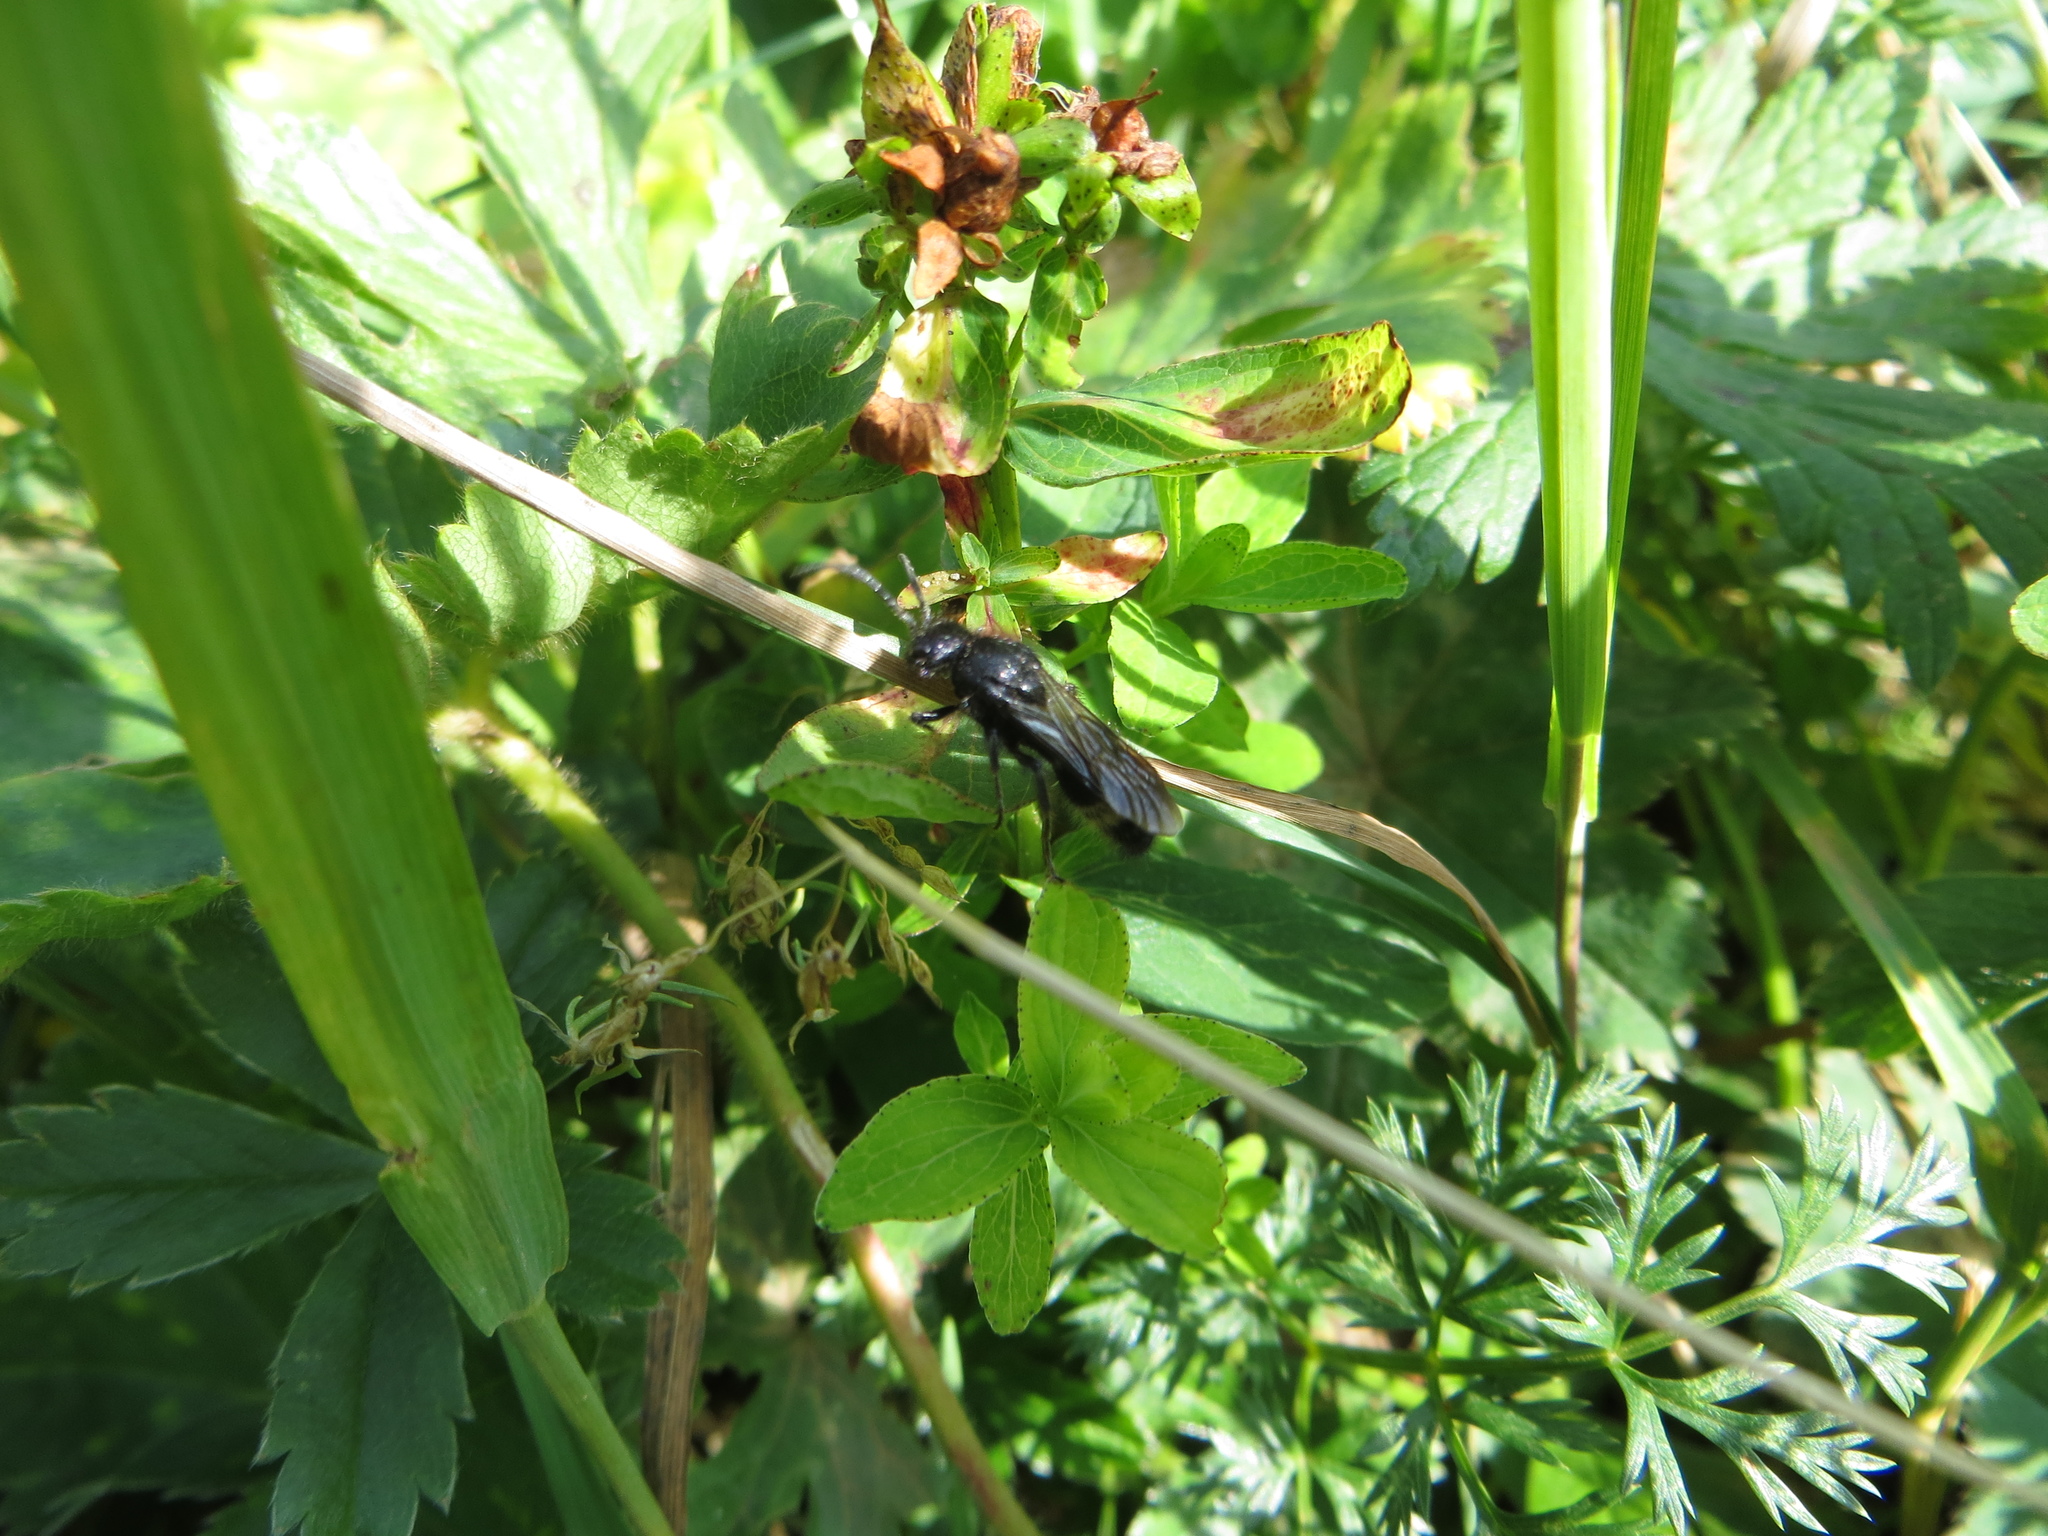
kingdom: Animalia
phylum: Arthropoda
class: Insecta
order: Hymenoptera
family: Mutillidae
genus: Mutilla
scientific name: Mutilla marginata
